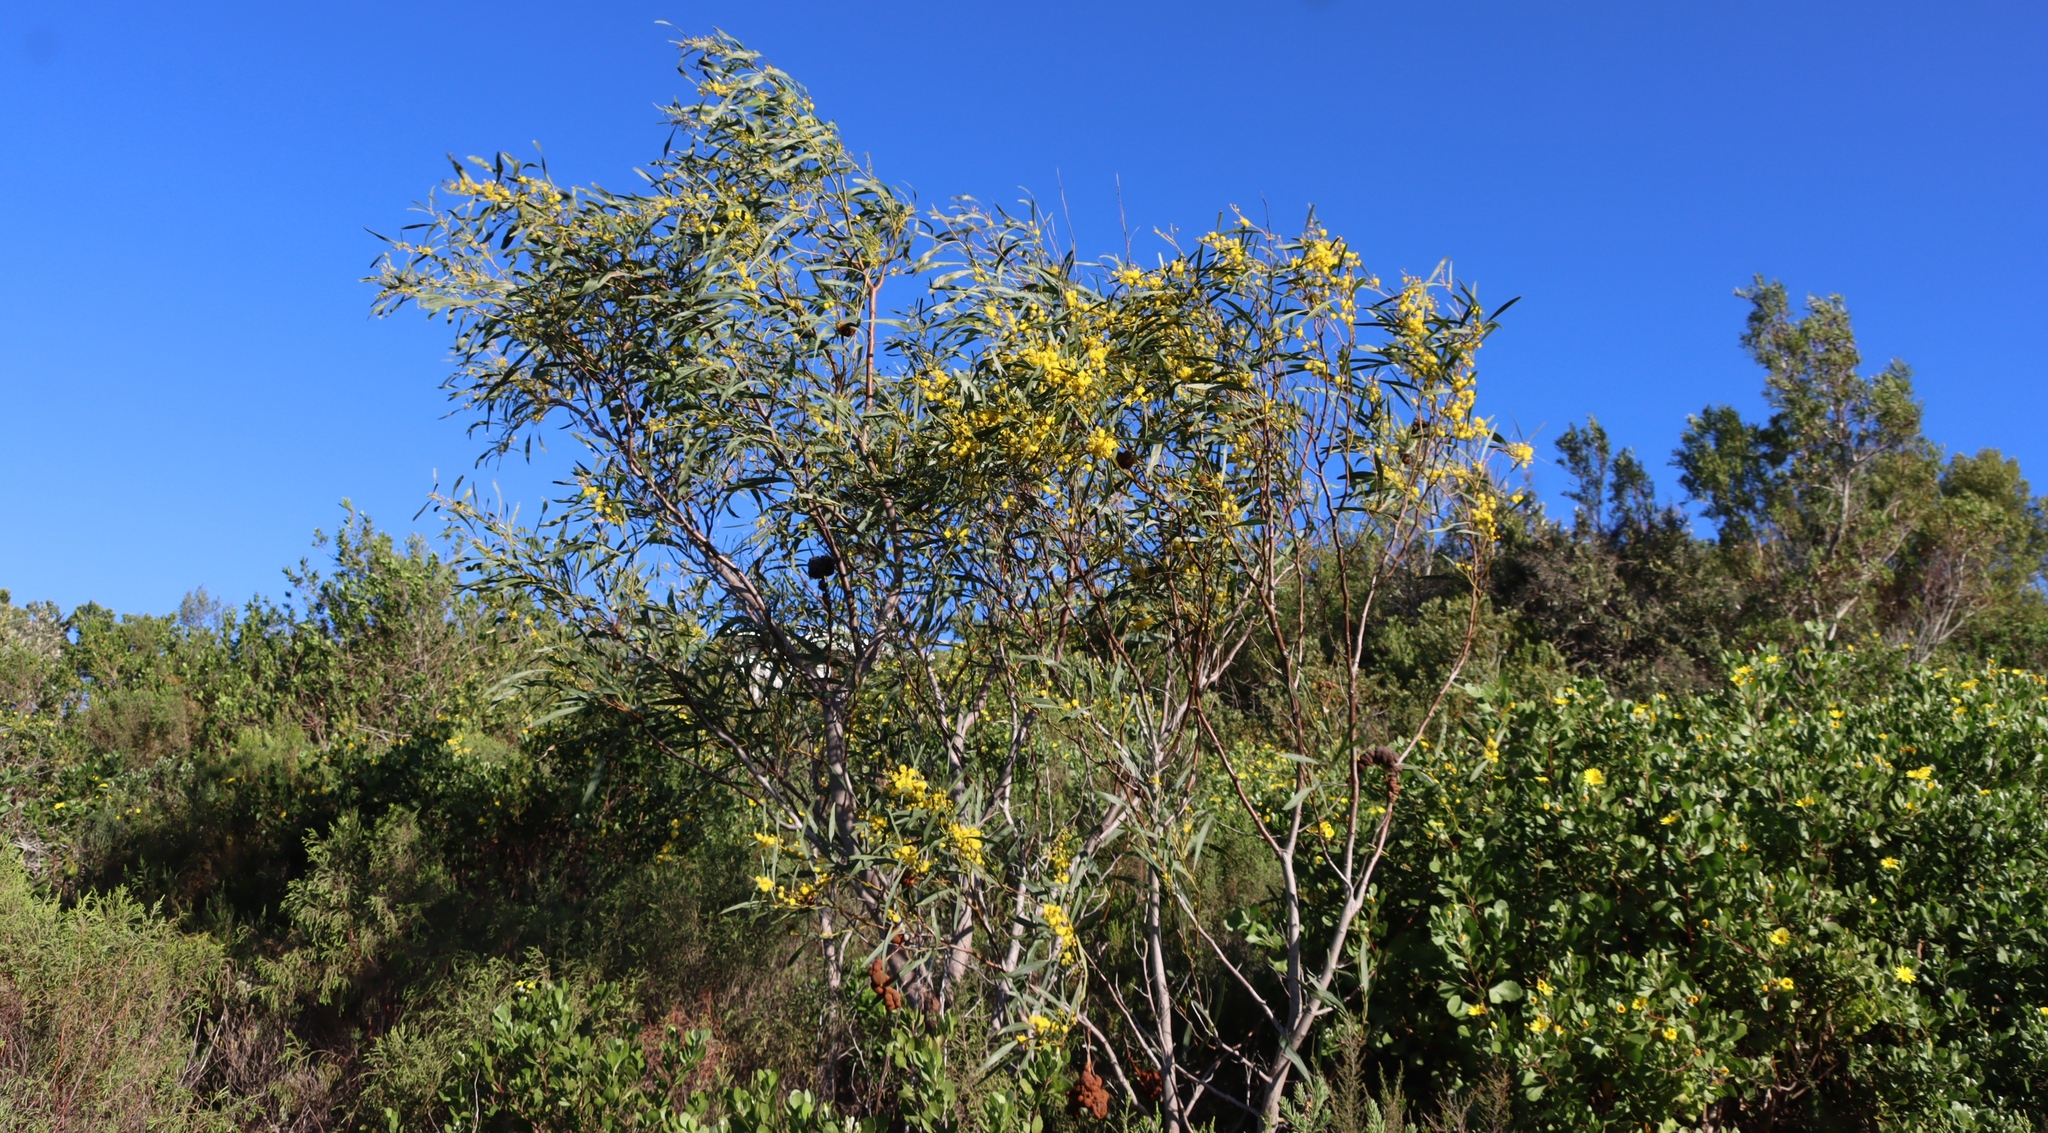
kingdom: Plantae
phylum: Tracheophyta
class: Magnoliopsida
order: Fabales
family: Fabaceae
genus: Acacia
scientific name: Acacia saligna
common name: Orange wattle
